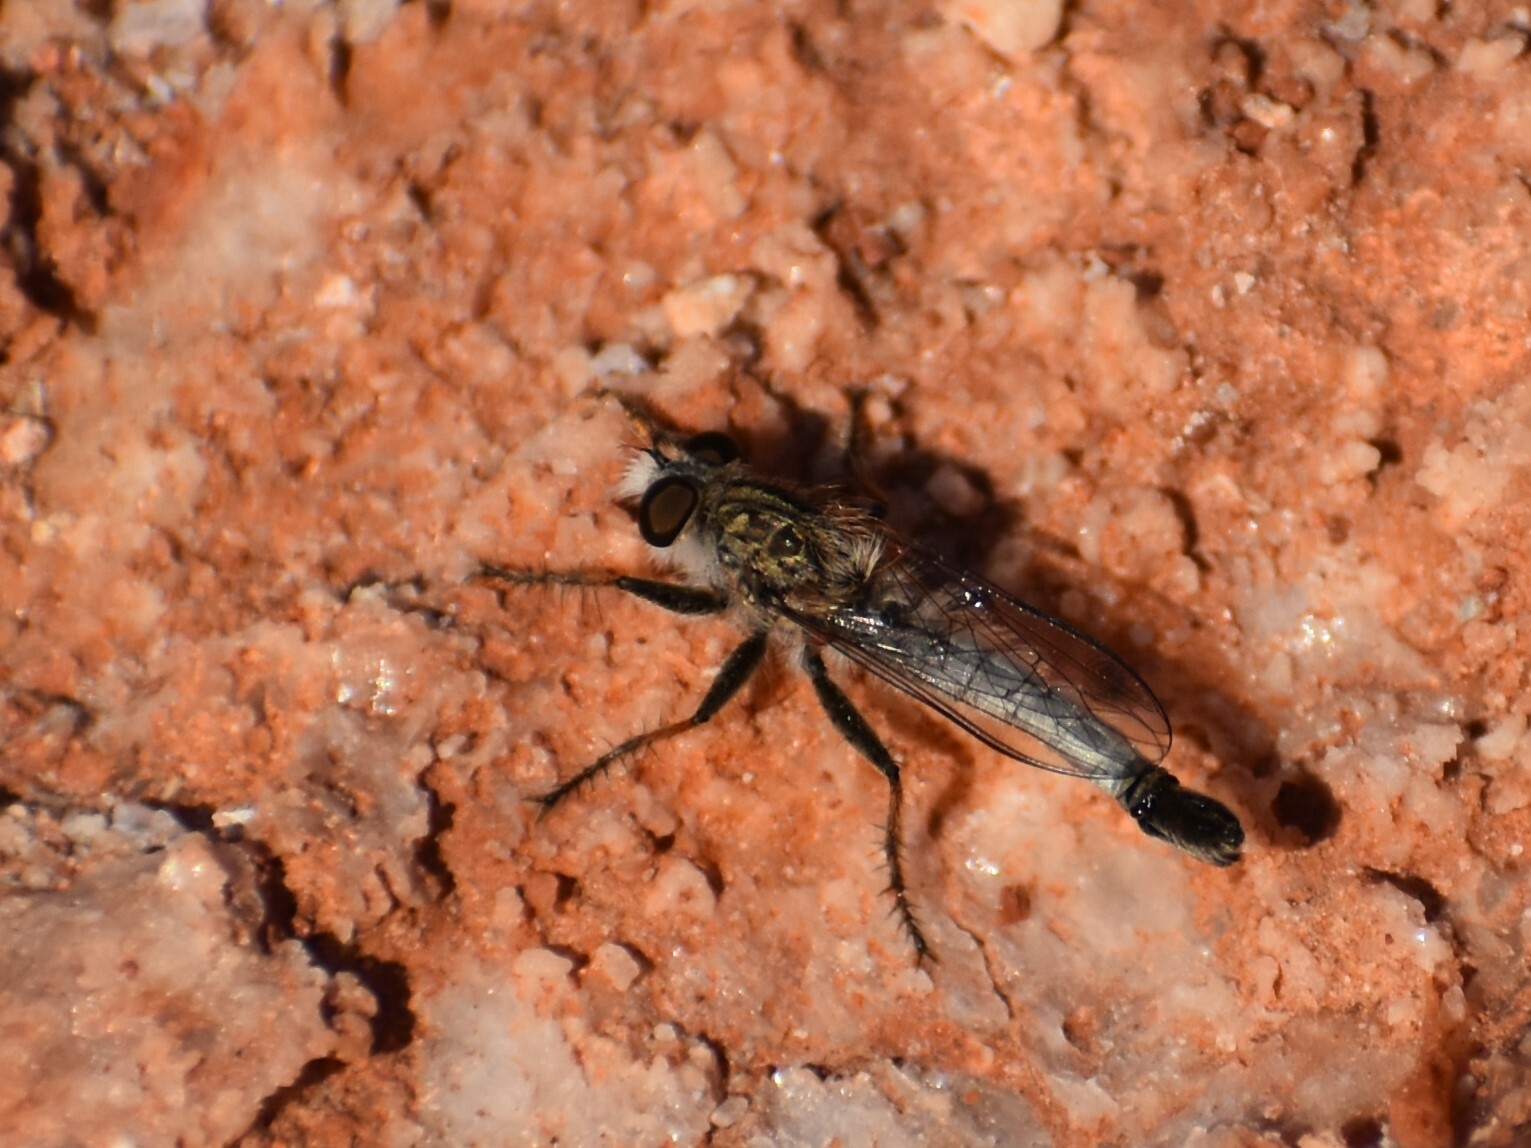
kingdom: Animalia
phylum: Arthropoda
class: Insecta
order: Diptera
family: Asilidae
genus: Efferia
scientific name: Efferia
